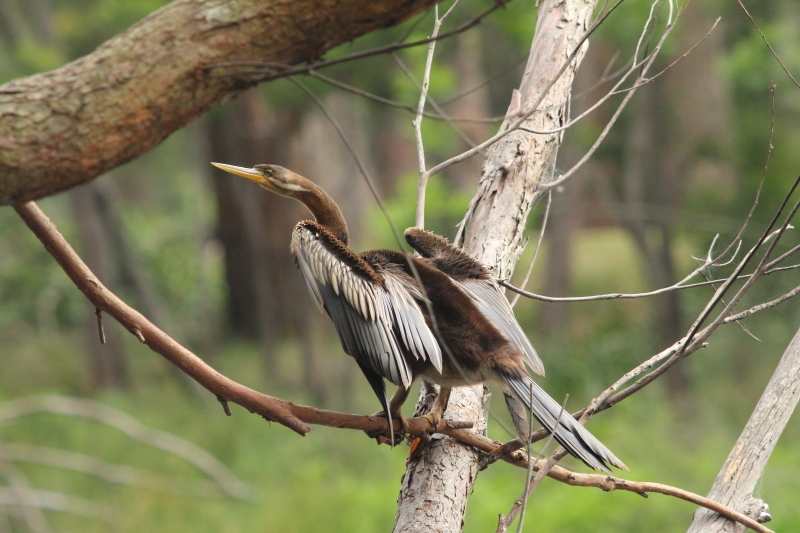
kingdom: Animalia
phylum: Chordata
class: Aves
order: Suliformes
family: Anhingidae
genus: Anhinga
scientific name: Anhinga novaehollandiae
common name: Australasian darter
